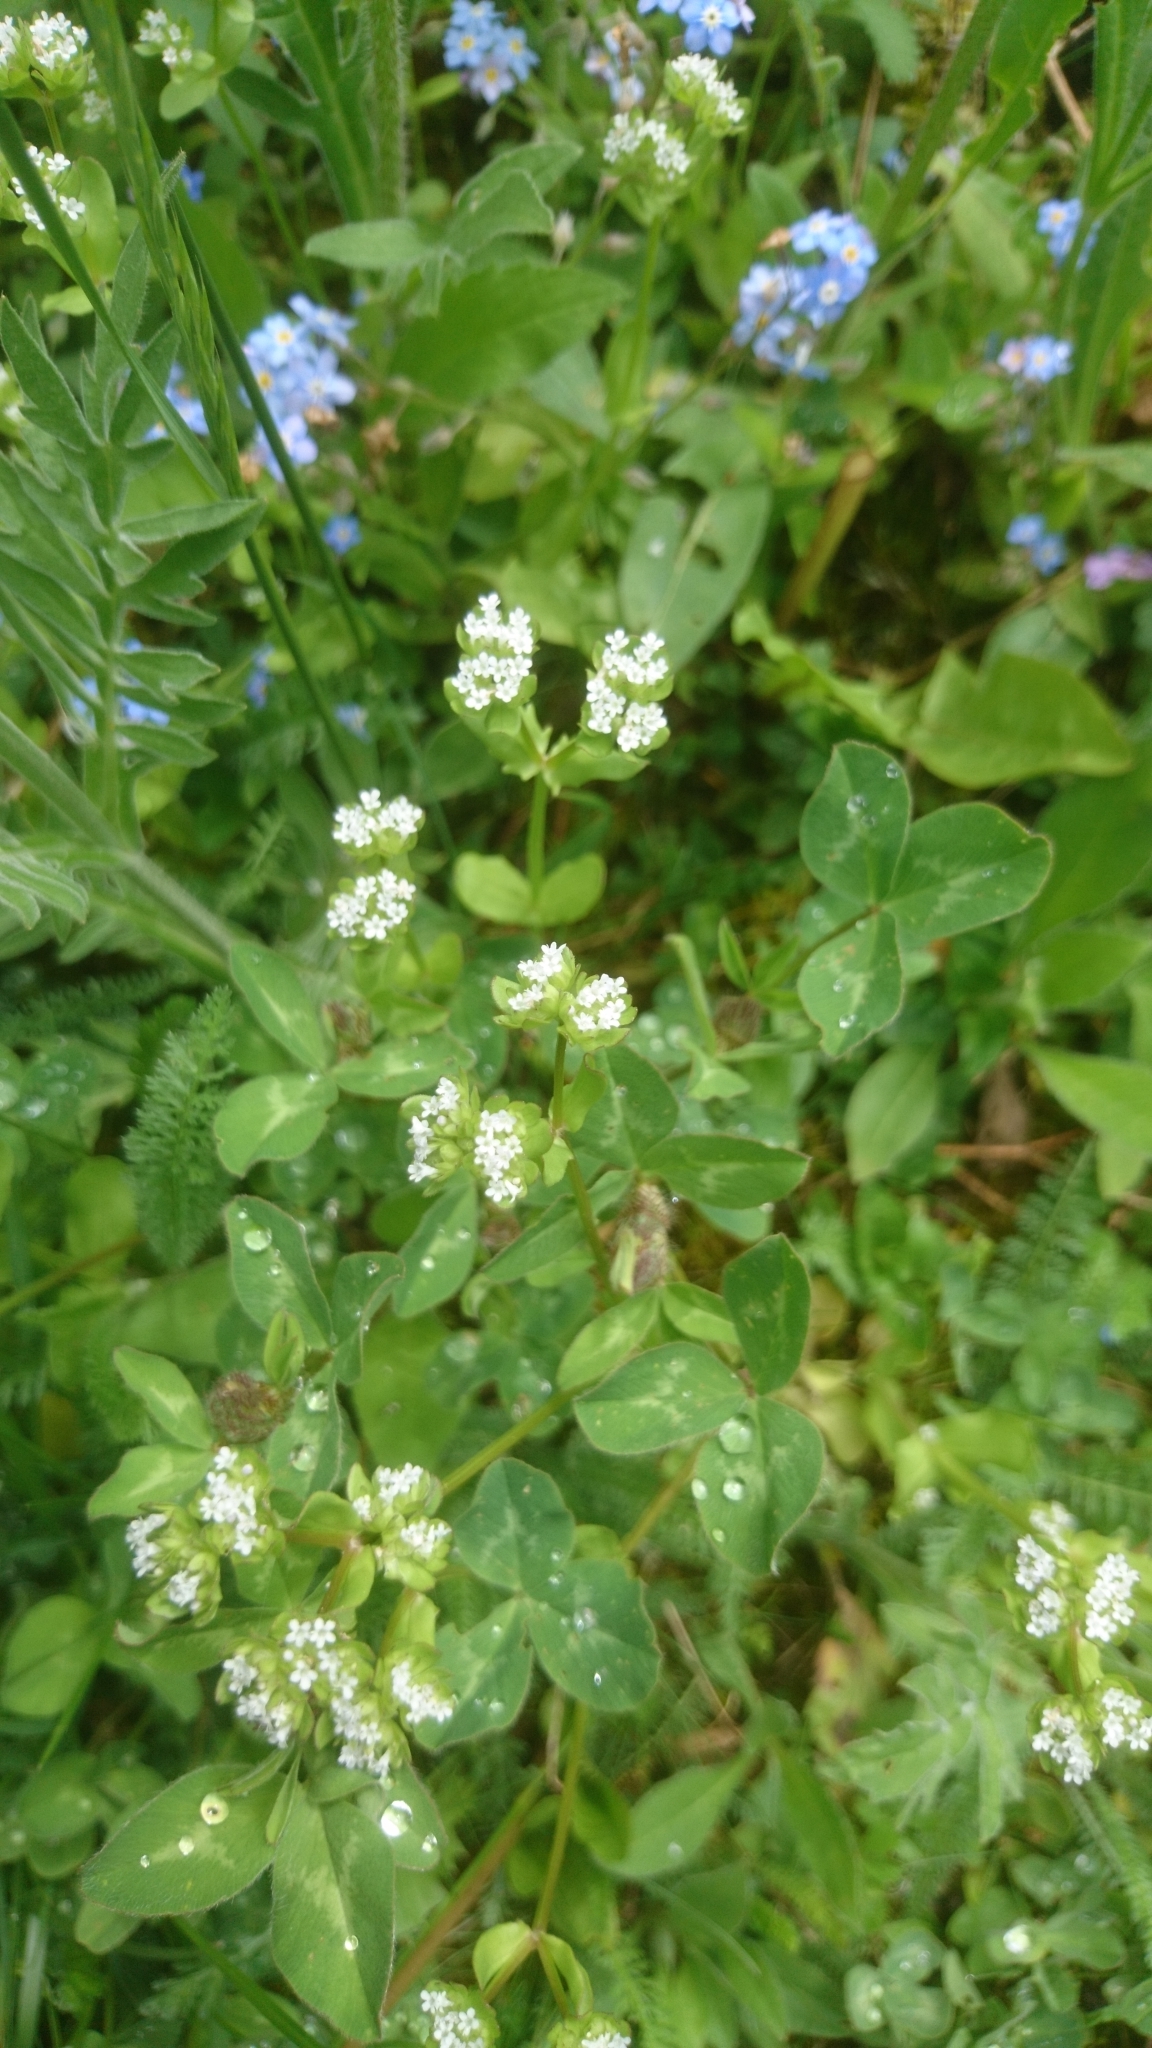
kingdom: Plantae
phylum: Tracheophyta
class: Magnoliopsida
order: Dipsacales
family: Caprifoliaceae
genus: Valerianella
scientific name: Valerianella locusta
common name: Common cornsalad
